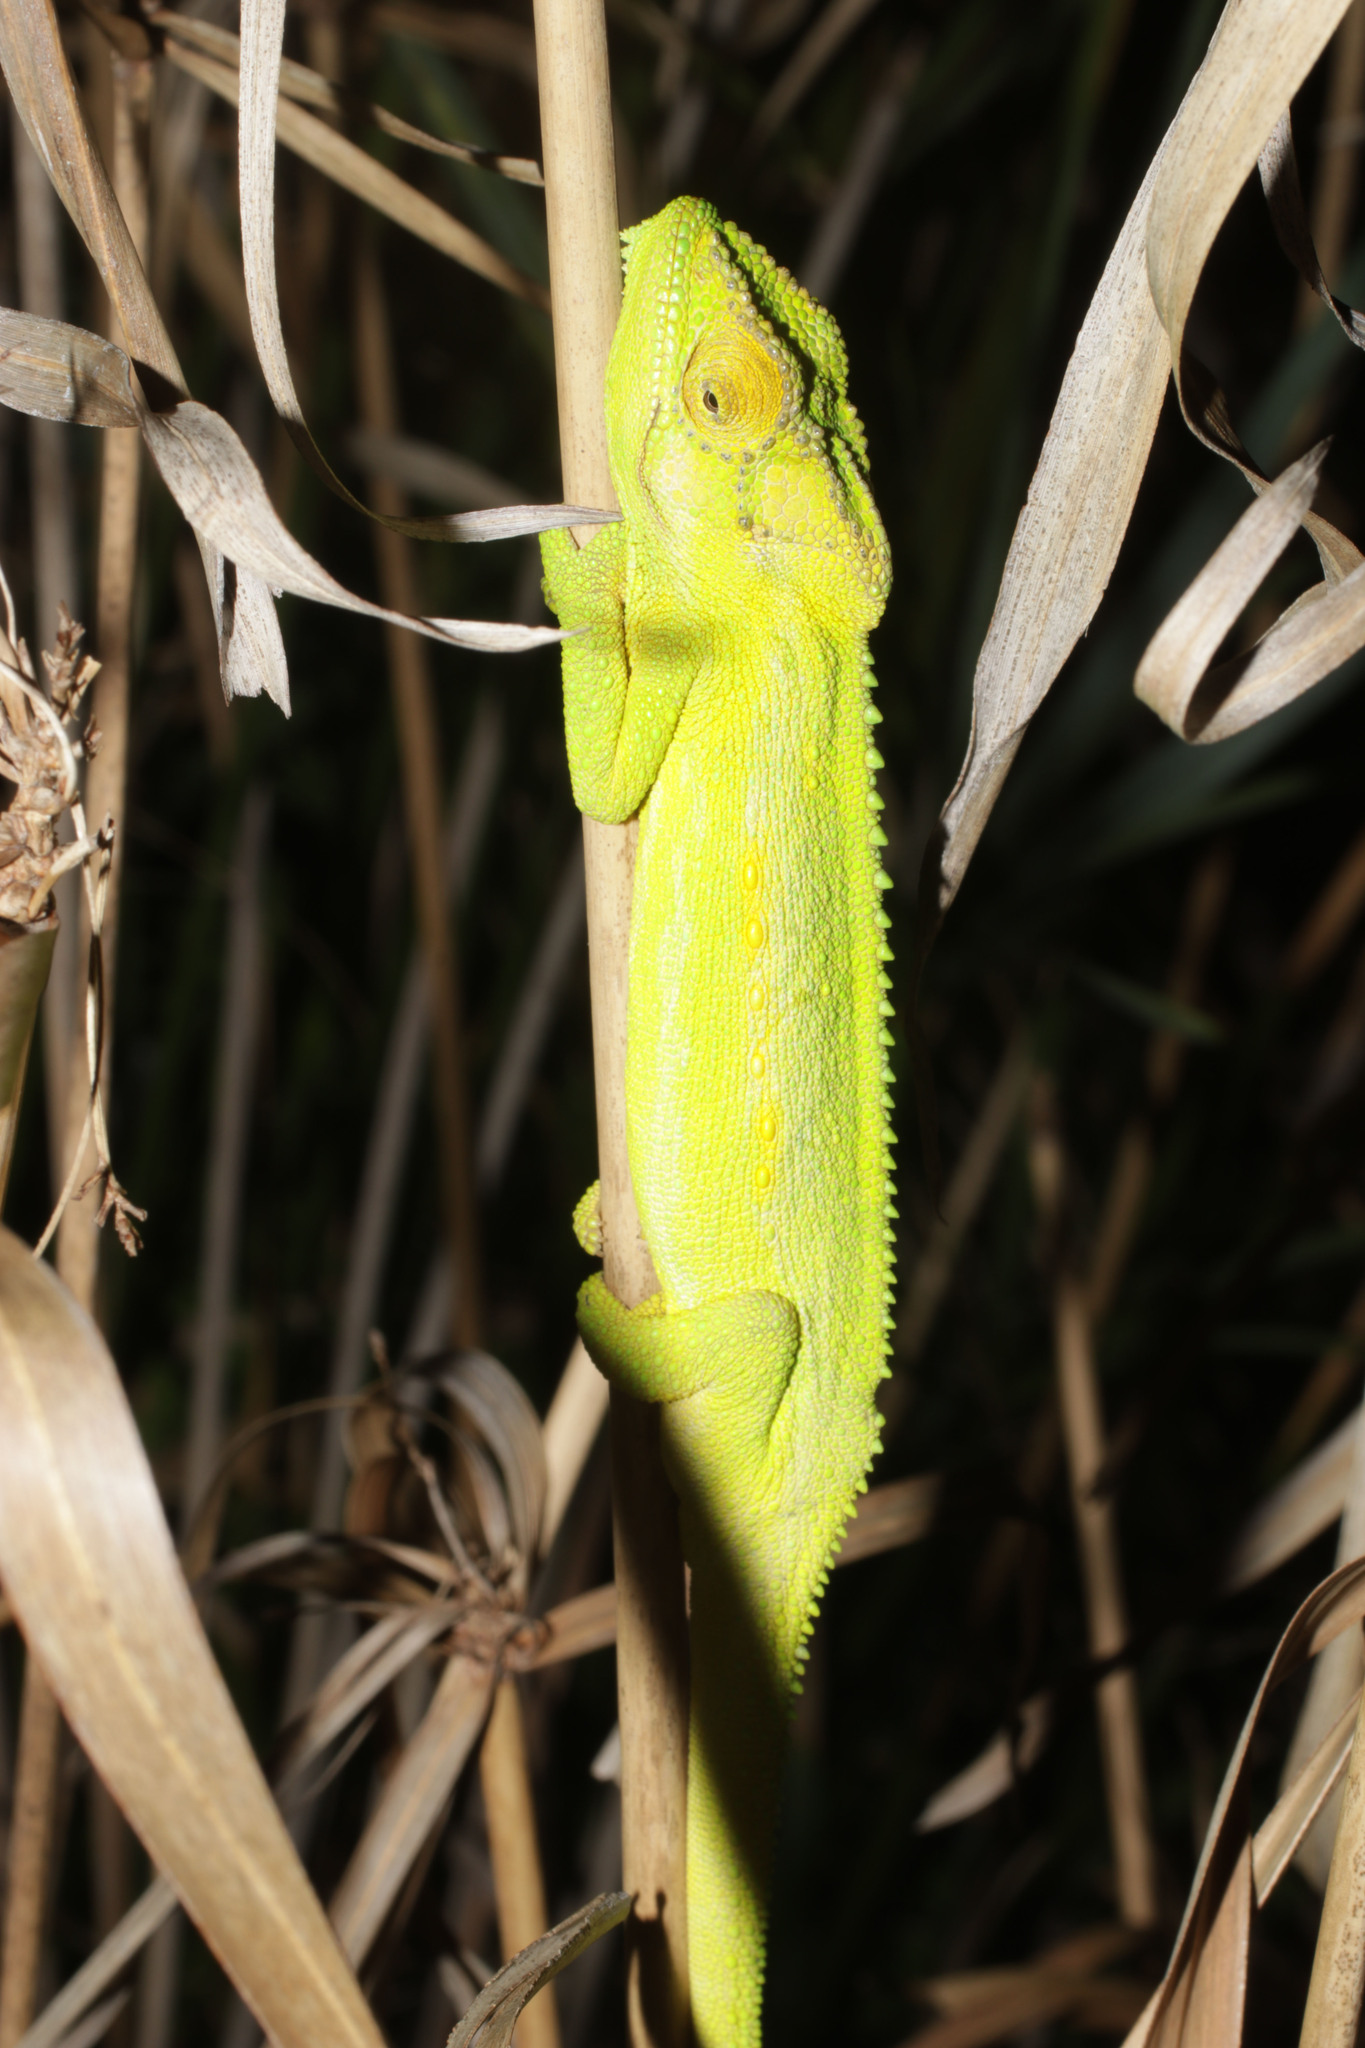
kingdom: Animalia
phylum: Chordata
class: Squamata
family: Chamaeleonidae
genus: Bradypodion
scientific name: Bradypodion pumilum
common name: Cape dwarf chameleon
